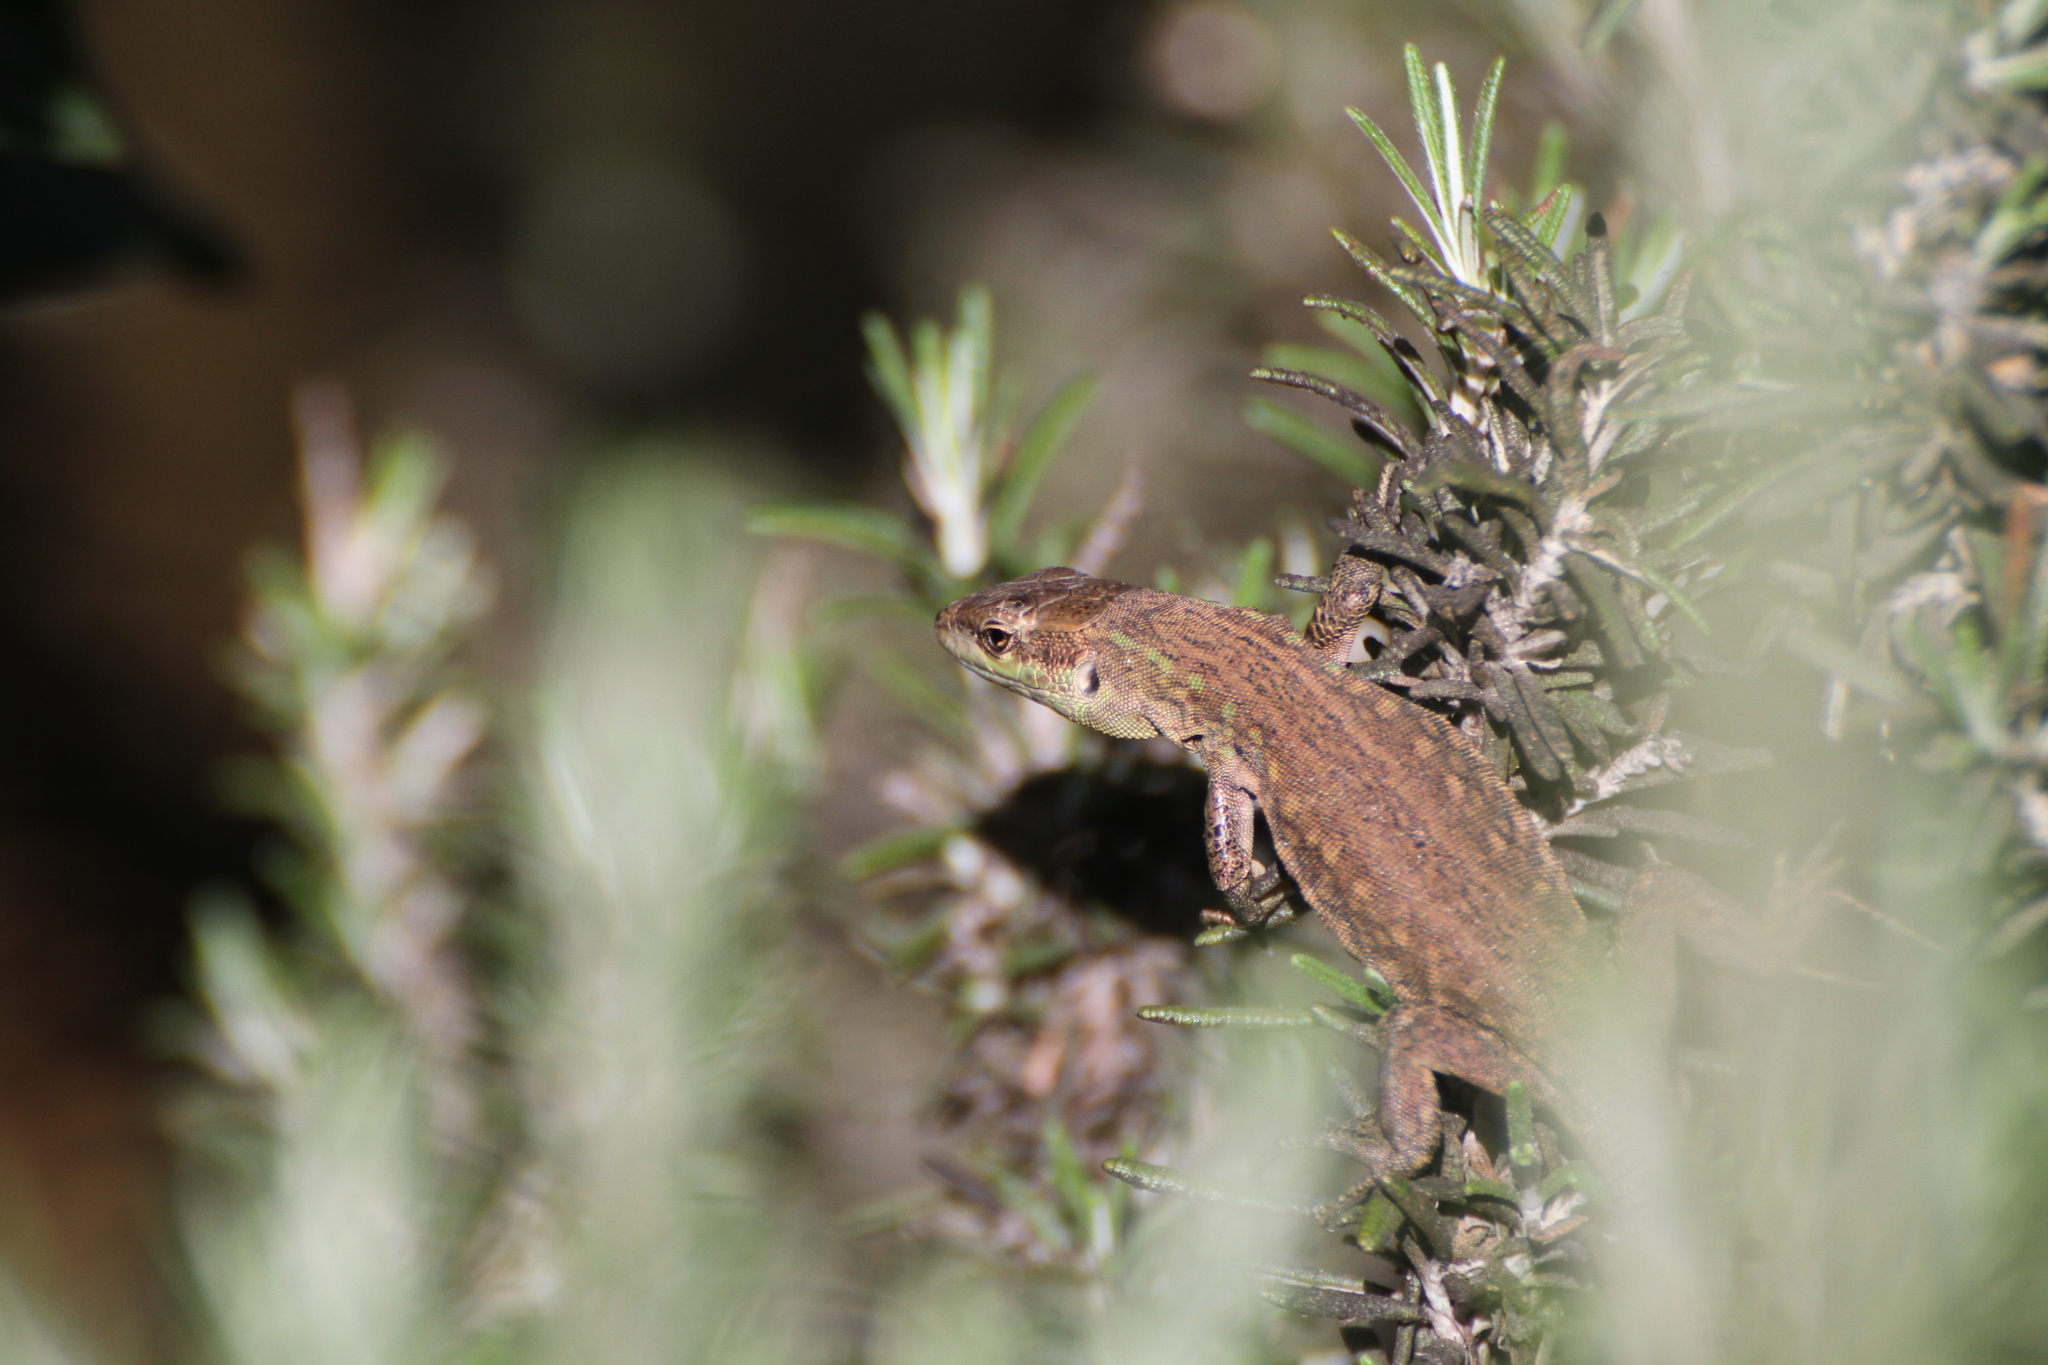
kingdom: Animalia
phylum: Chordata
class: Squamata
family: Lacertidae
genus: Podarcis
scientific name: Podarcis siculus
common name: Italian wall lizard
